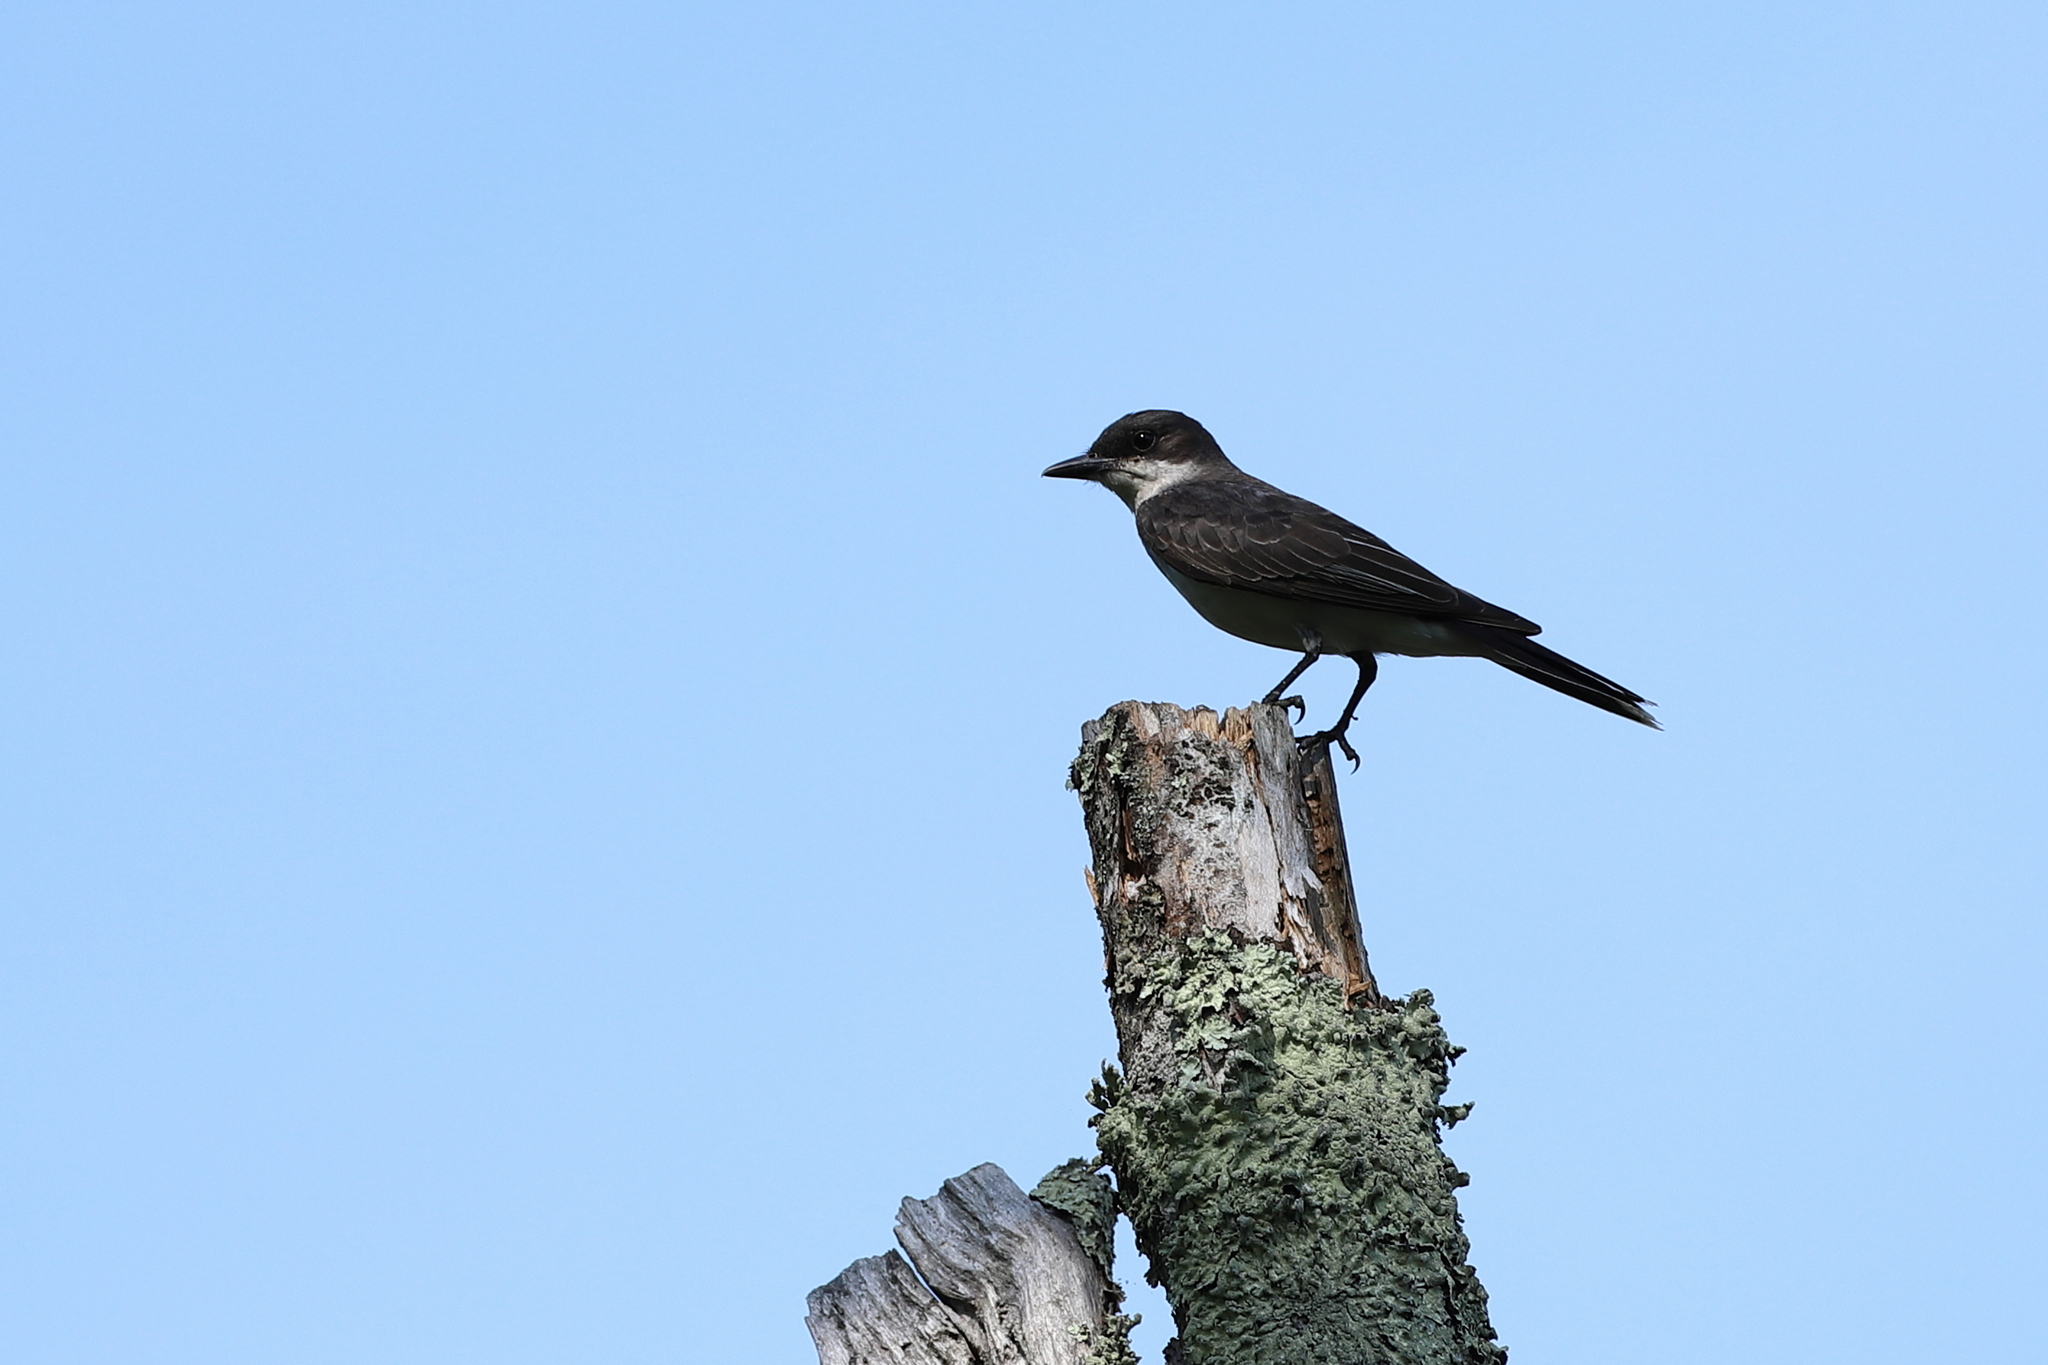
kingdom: Animalia
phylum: Chordata
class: Aves
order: Passeriformes
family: Tyrannidae
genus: Tyrannus
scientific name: Tyrannus tyrannus
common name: Eastern kingbird
